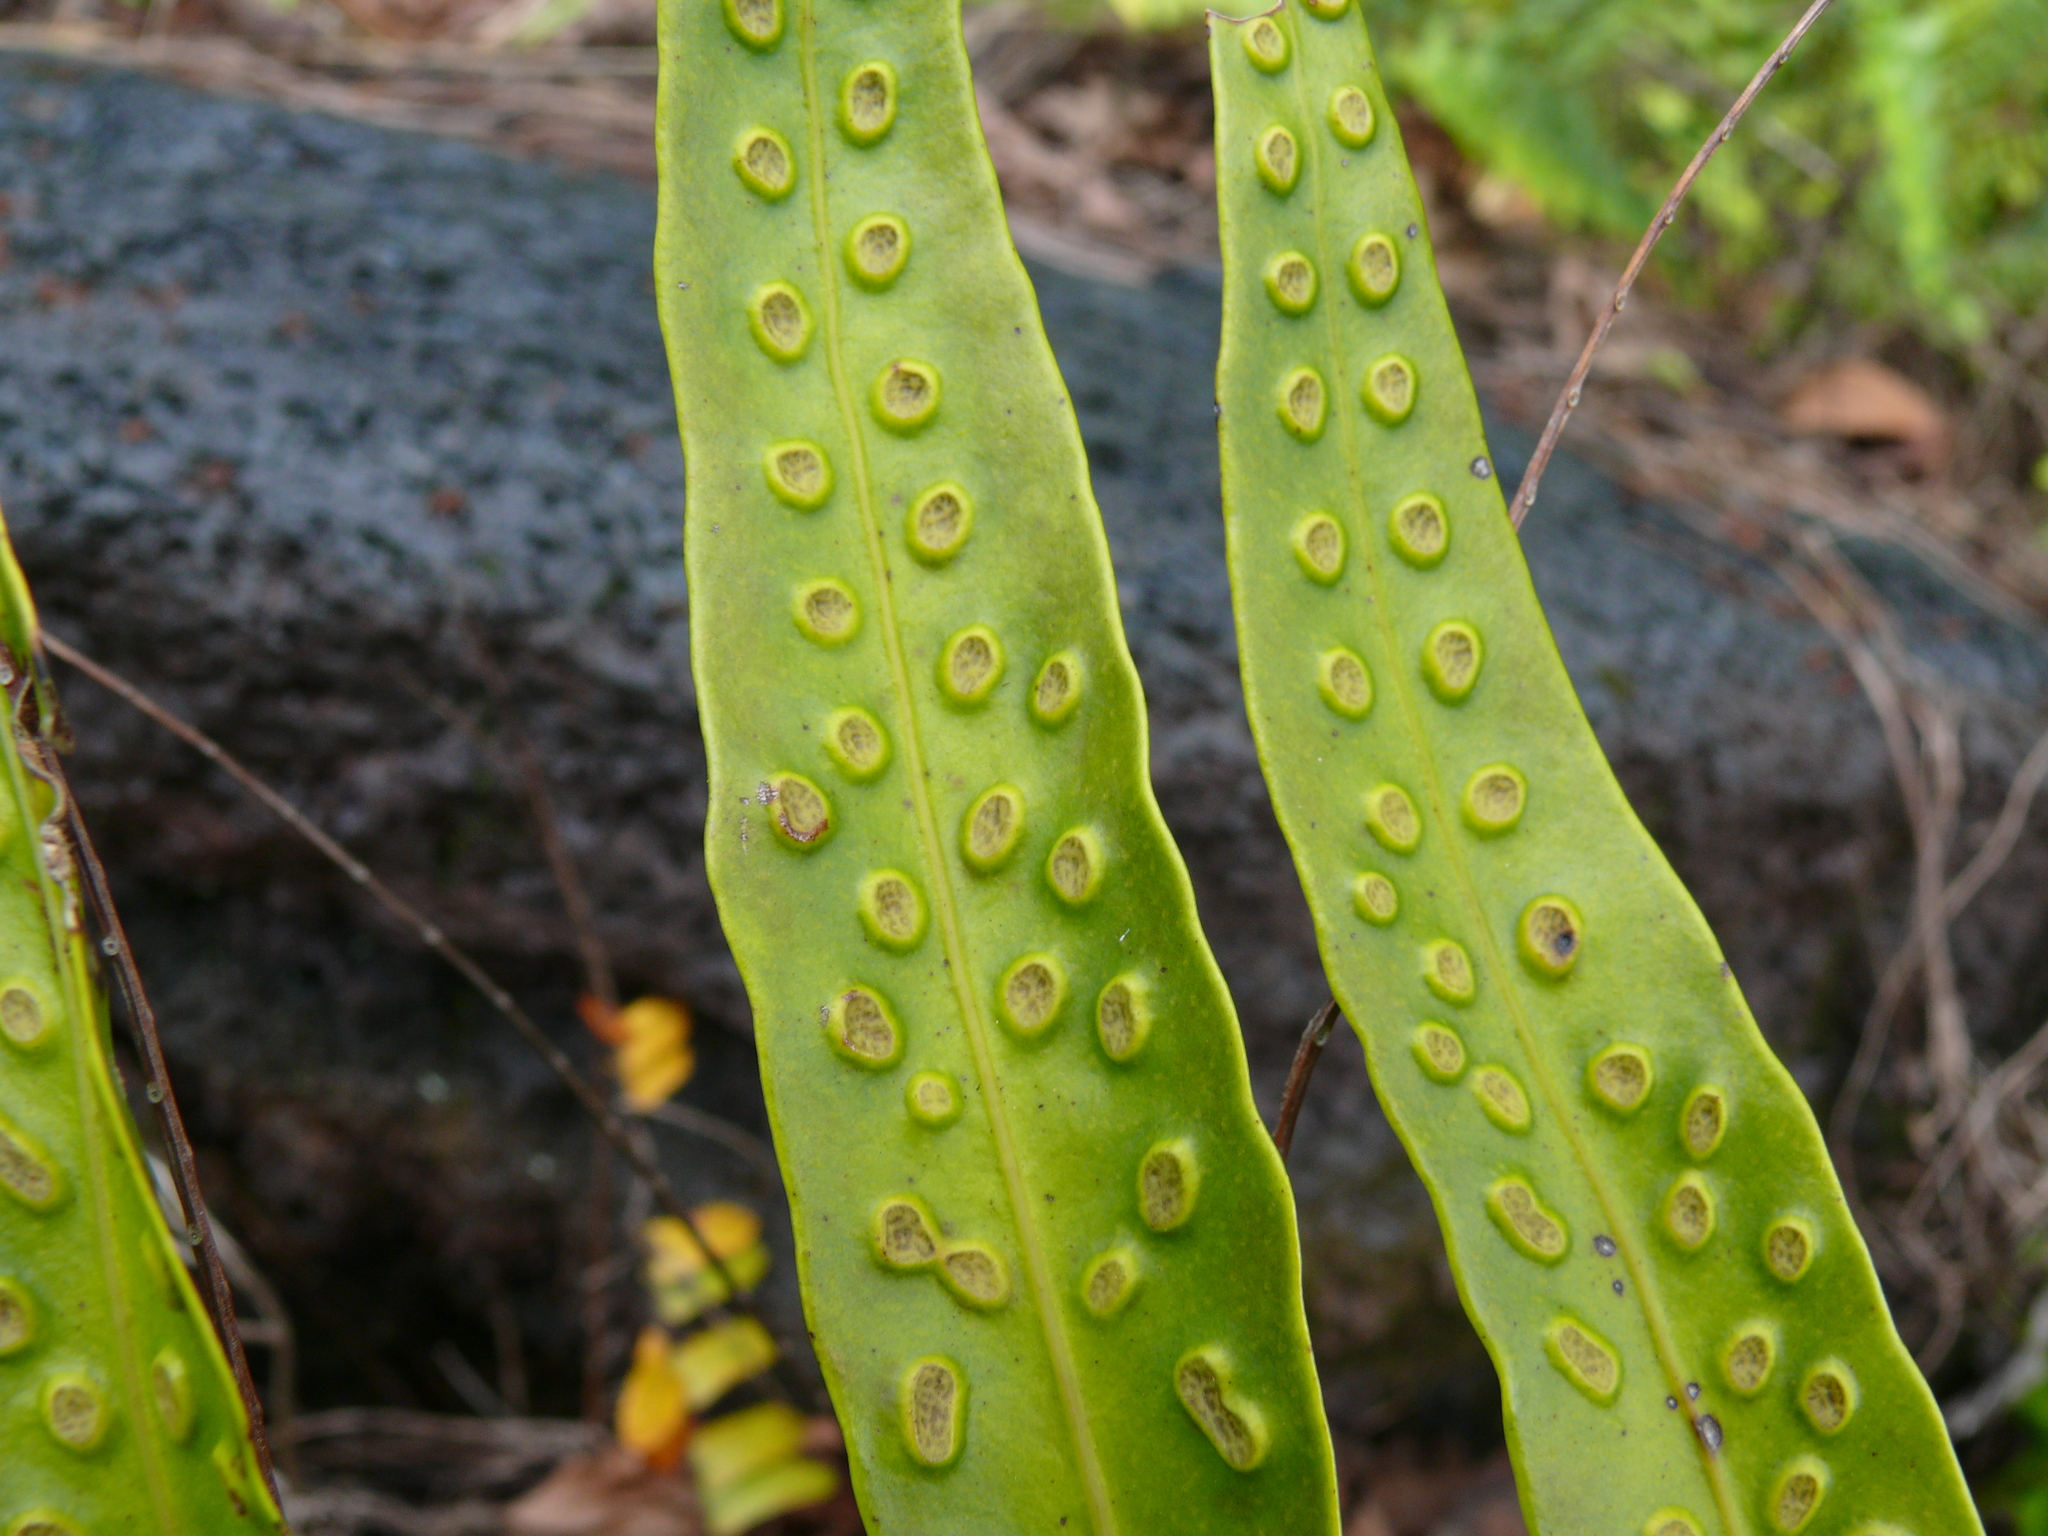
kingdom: Plantae
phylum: Tracheophyta
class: Polypodiopsida
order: Polypodiales
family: Polypodiaceae
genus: Microsorum
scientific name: Microsorum grossum
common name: Musk fern
